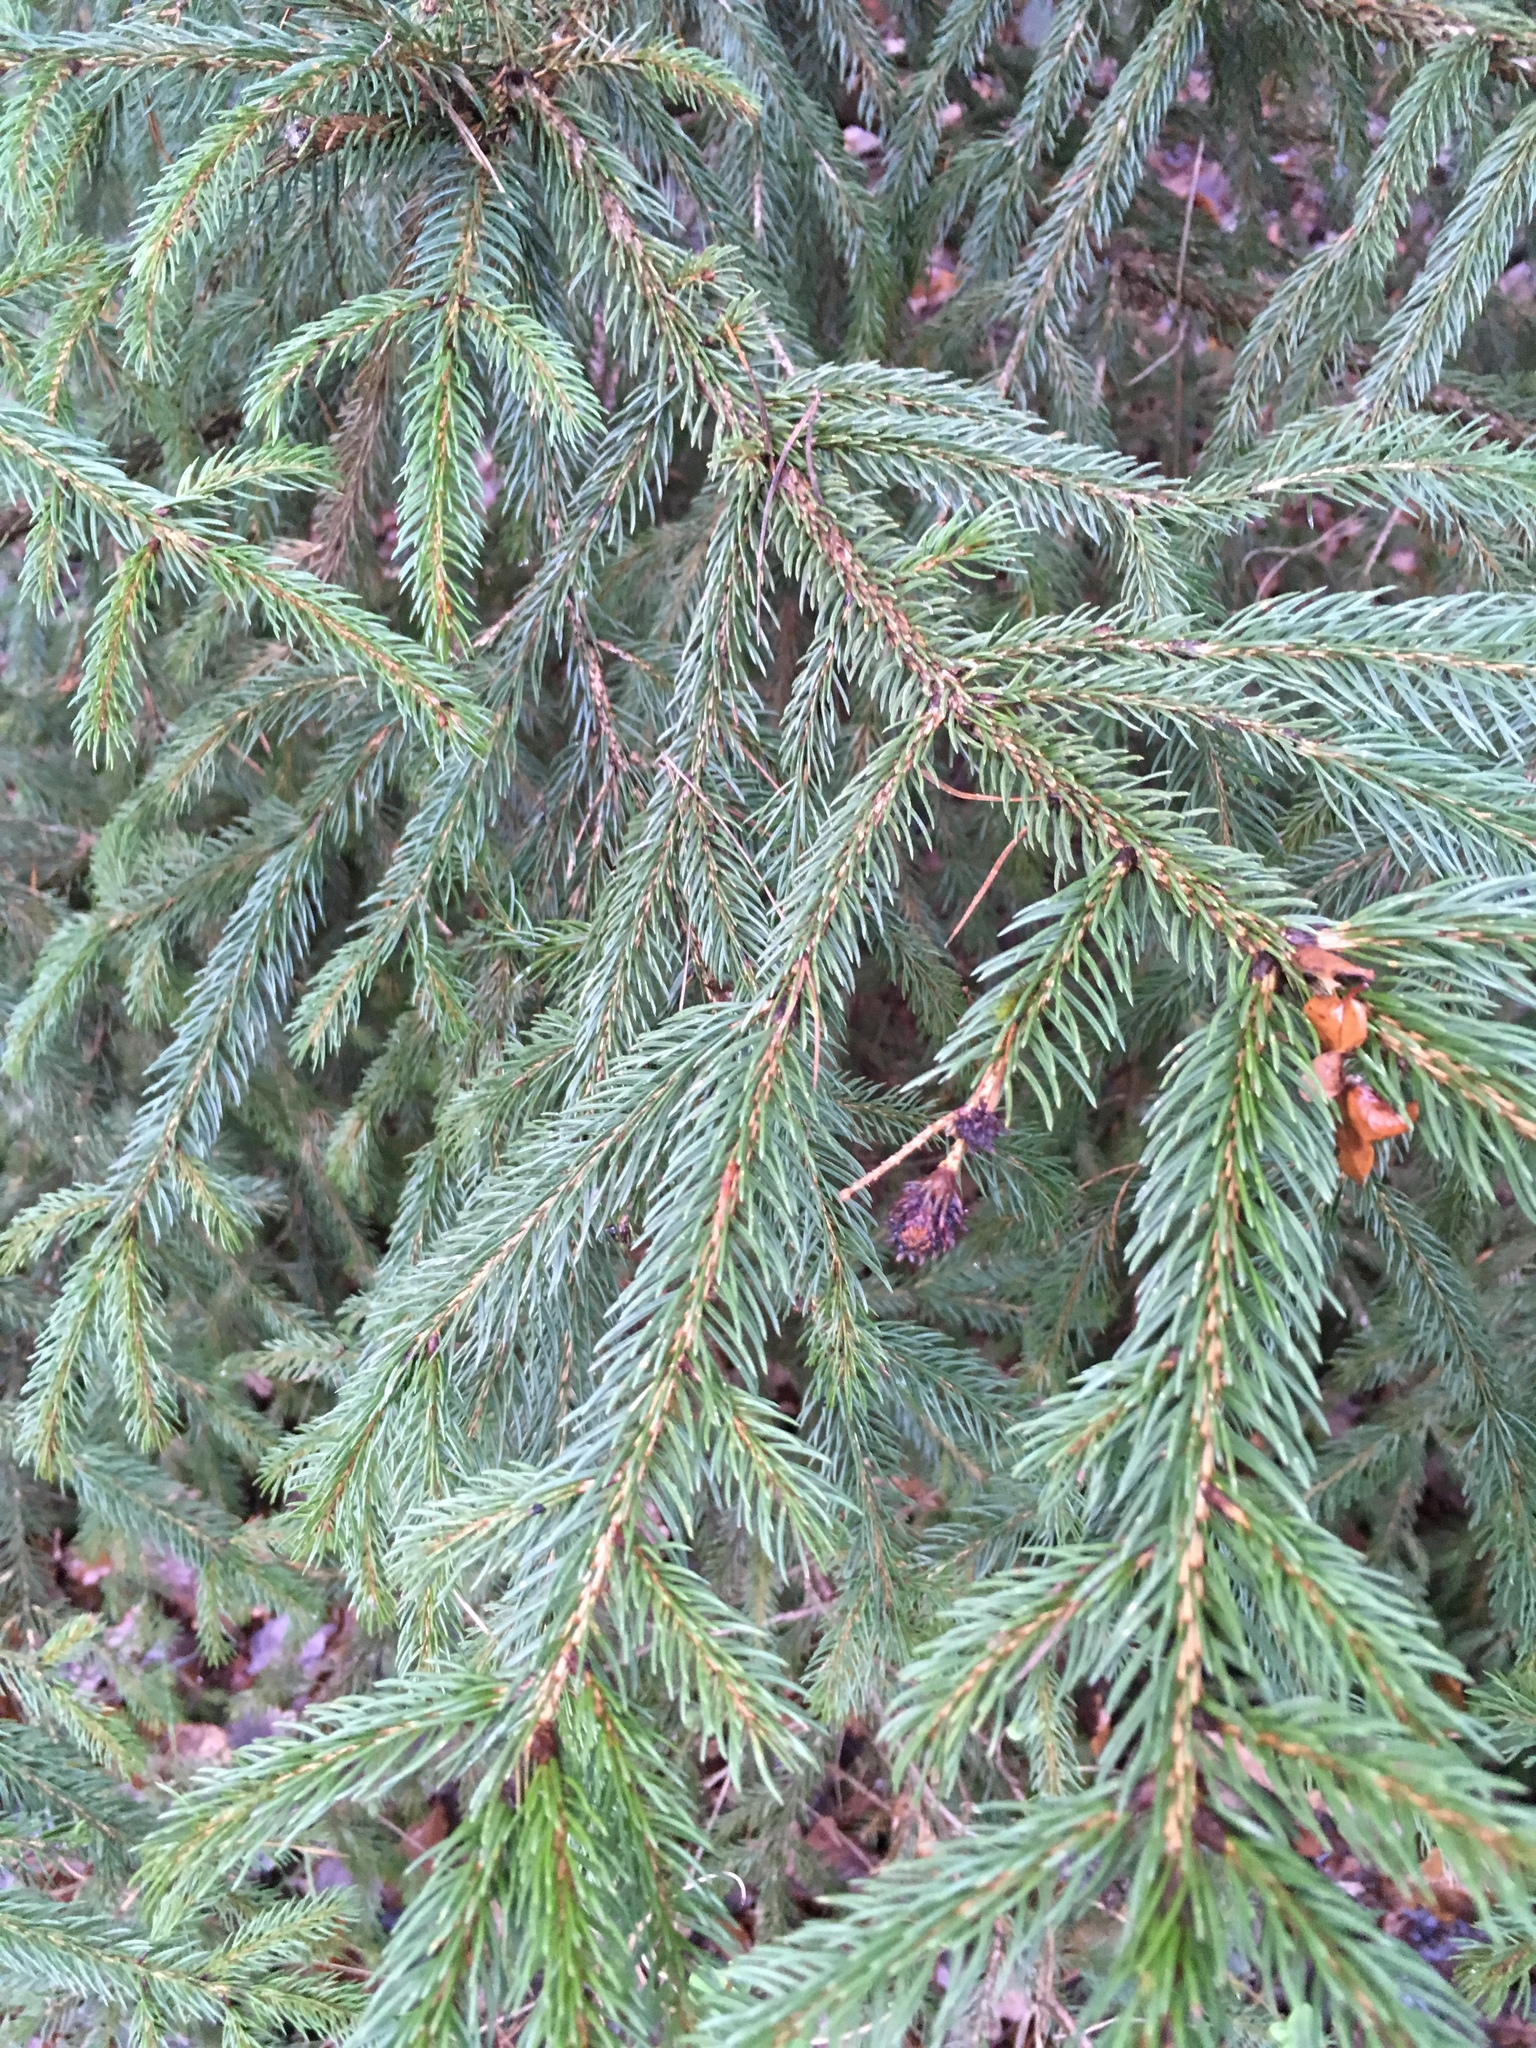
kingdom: Plantae
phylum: Tracheophyta
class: Pinopsida
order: Pinales
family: Pinaceae
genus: Picea
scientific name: Picea abies
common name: Norway spruce
